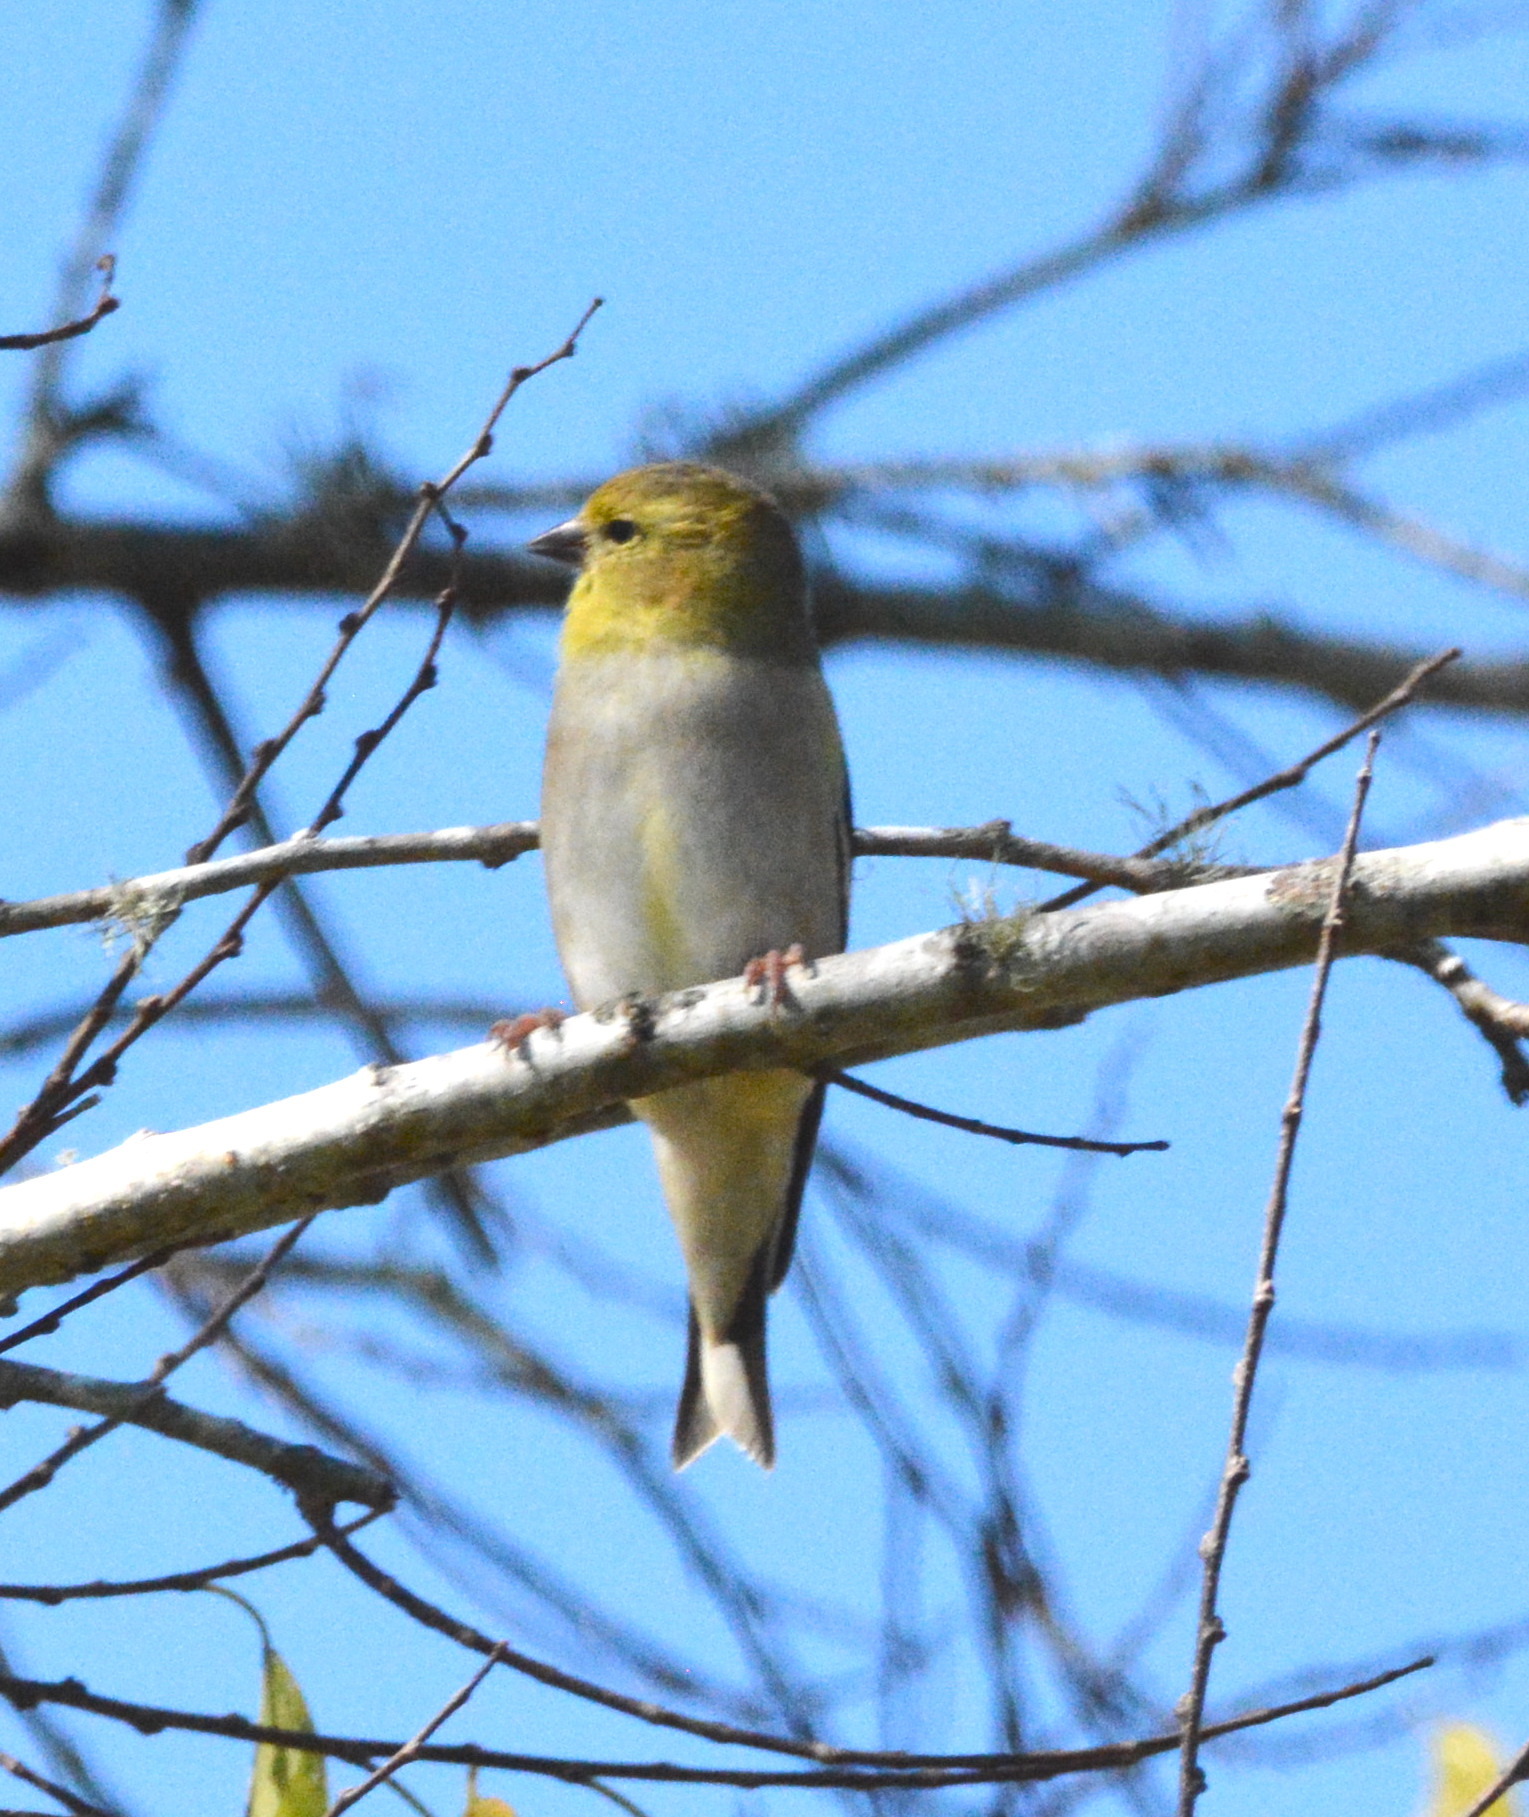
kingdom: Animalia
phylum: Chordata
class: Aves
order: Passeriformes
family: Fringillidae
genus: Spinus
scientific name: Spinus tristis
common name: American goldfinch
